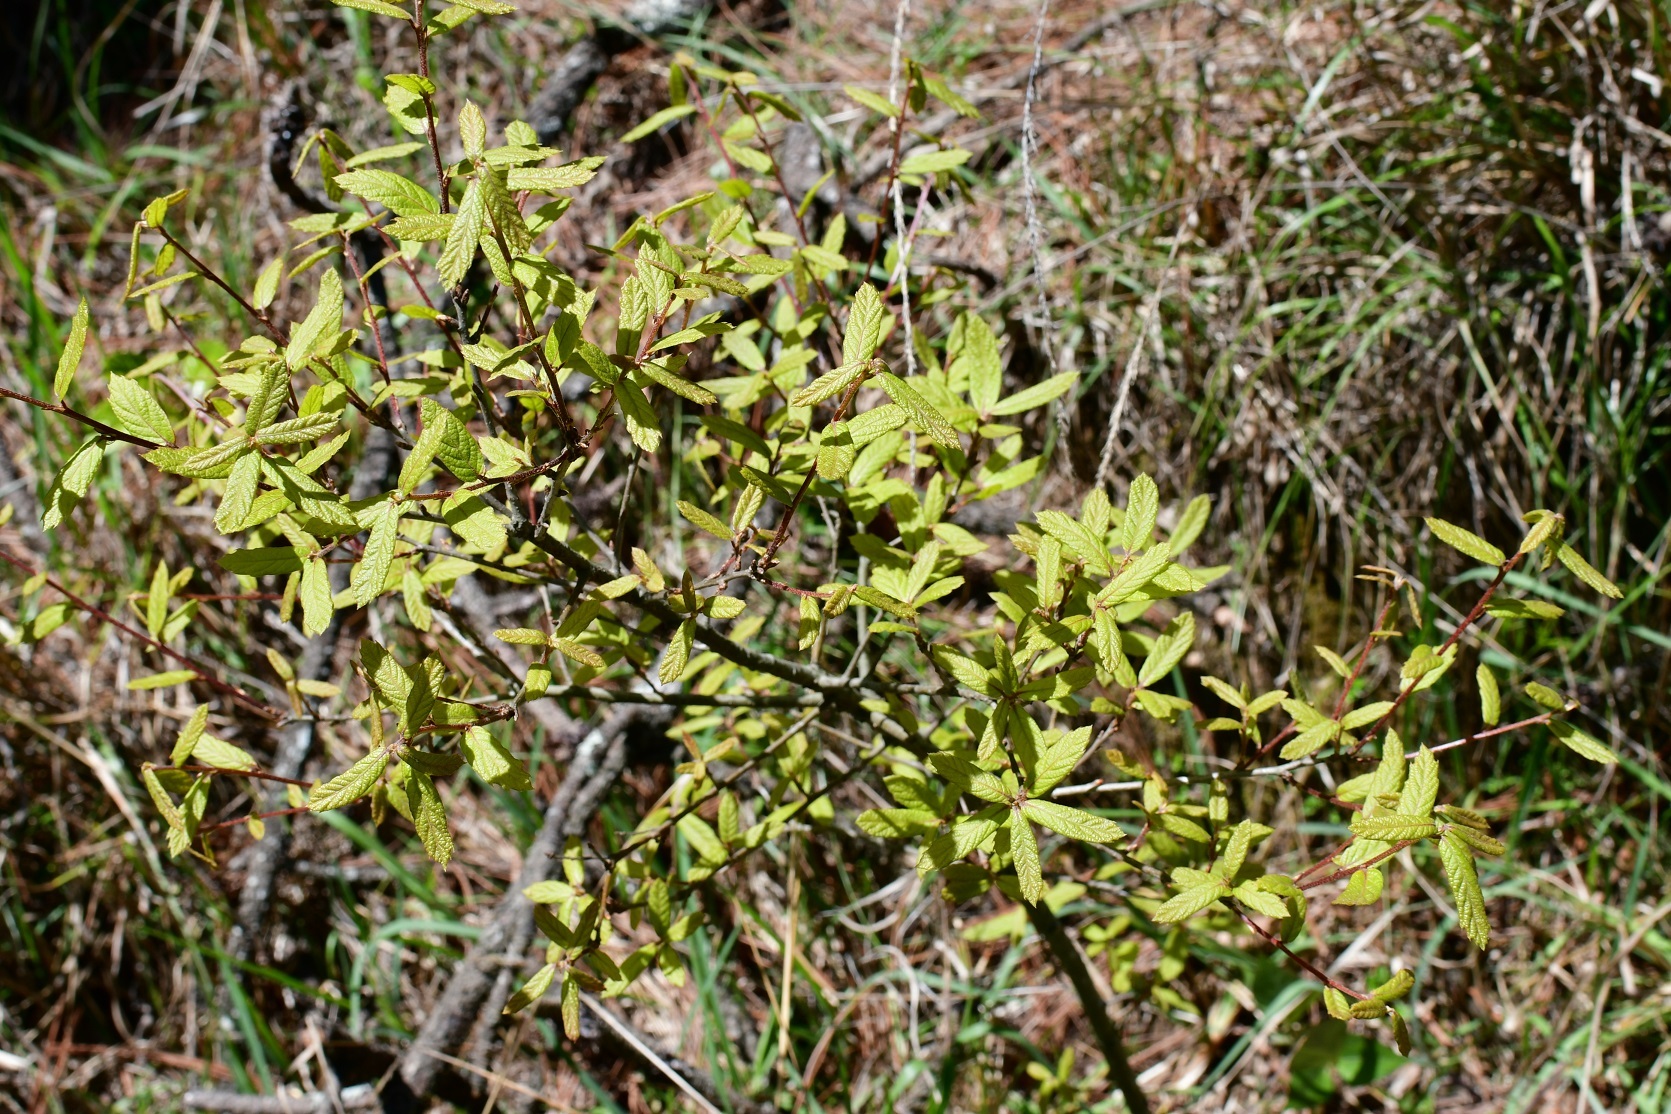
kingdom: Plantae
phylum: Tracheophyta
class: Magnoliopsida
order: Fagales
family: Fagaceae
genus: Quercus
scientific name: Quercus castanea
